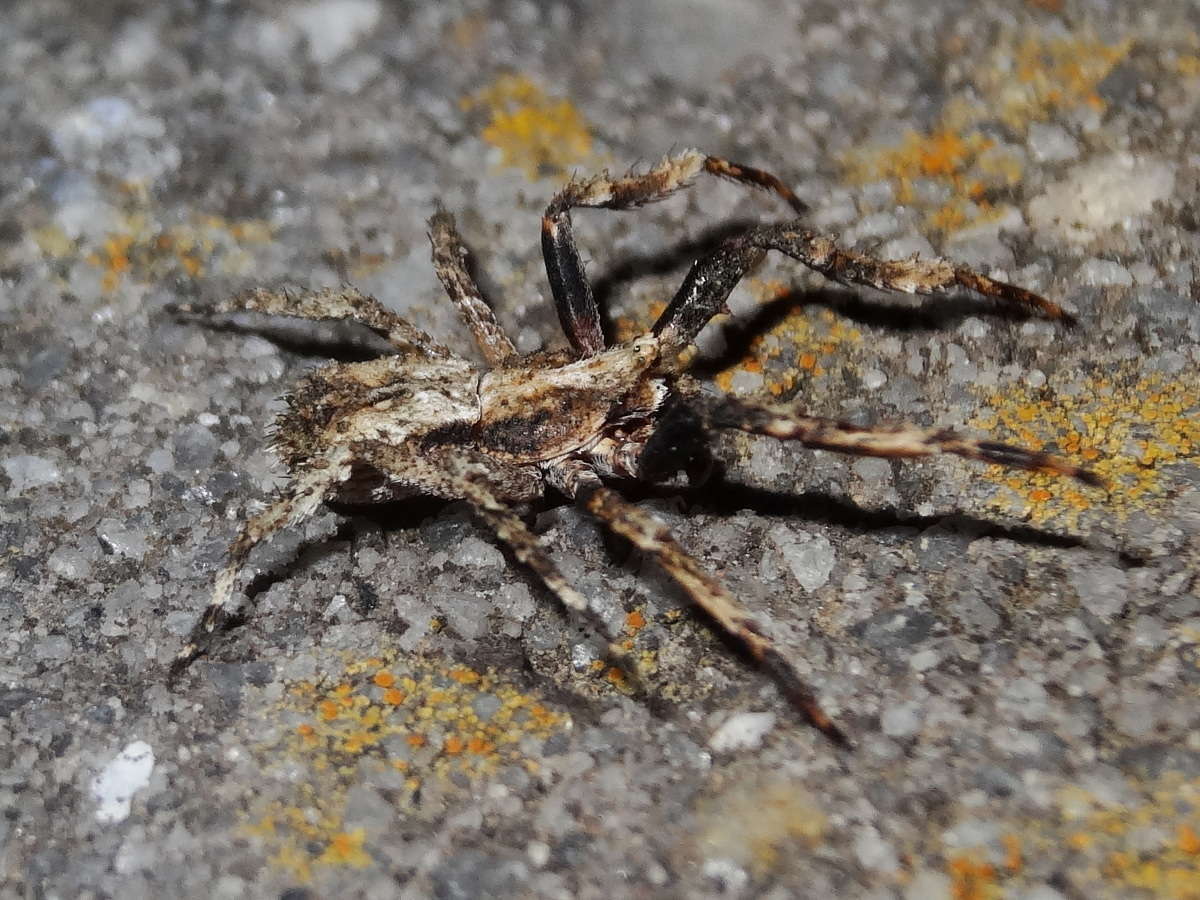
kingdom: Animalia
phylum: Arthropoda
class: Arachnida
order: Araneae
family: Thomisidae
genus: Isala
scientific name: Isala cambridgei
